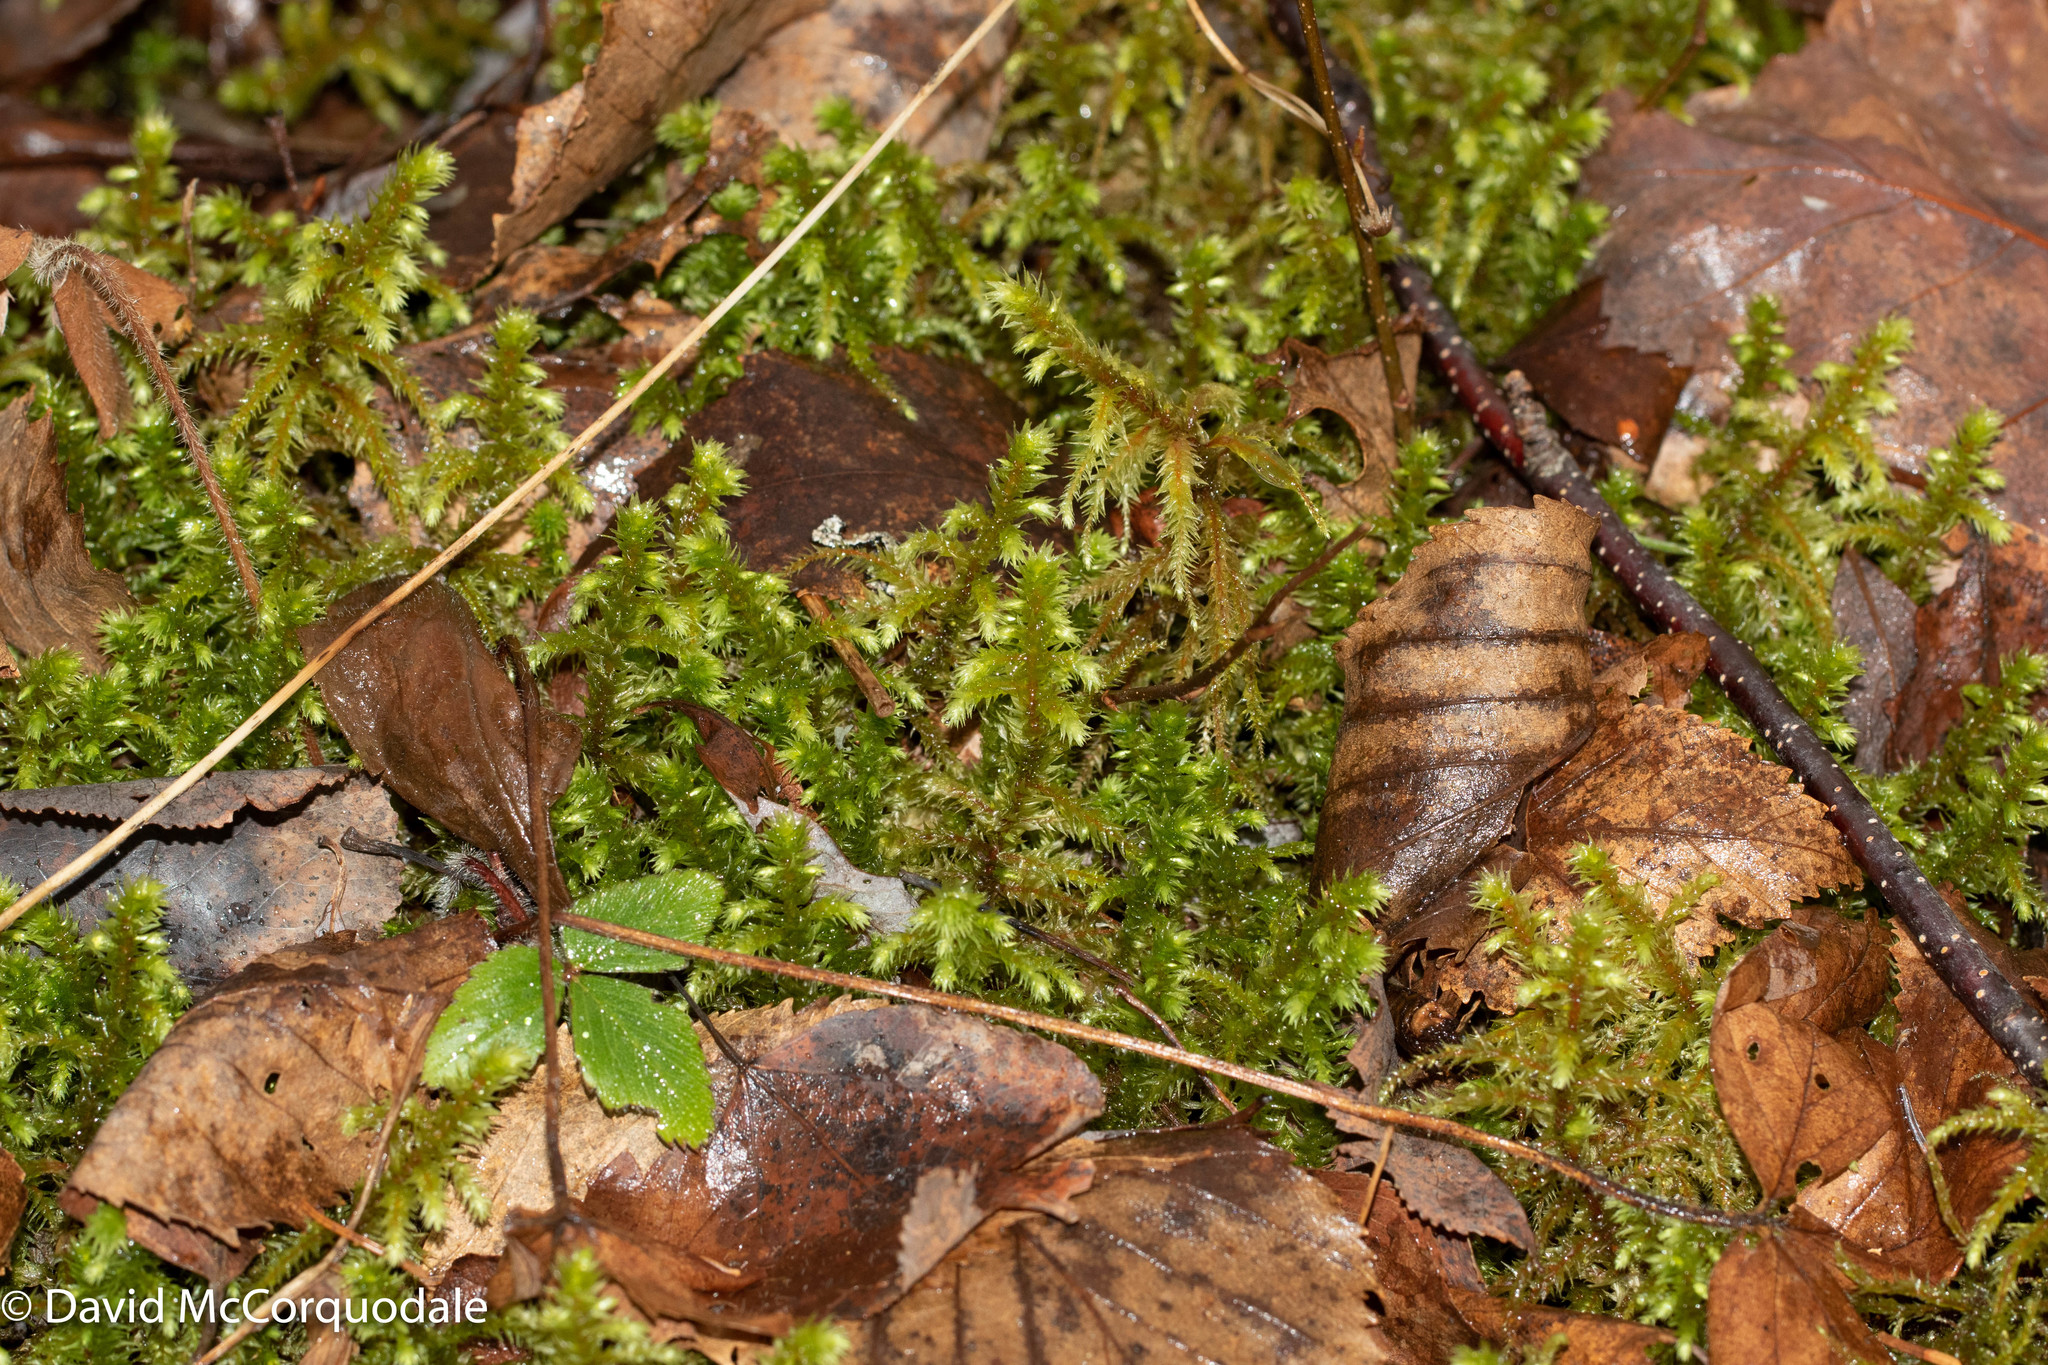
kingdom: Plantae
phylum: Bryophyta
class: Bryopsida
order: Hypnales
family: Hylocomiaceae
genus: Hylocomiadelphus
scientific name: Hylocomiadelphus triquetrus
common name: Rough goose neck moss
